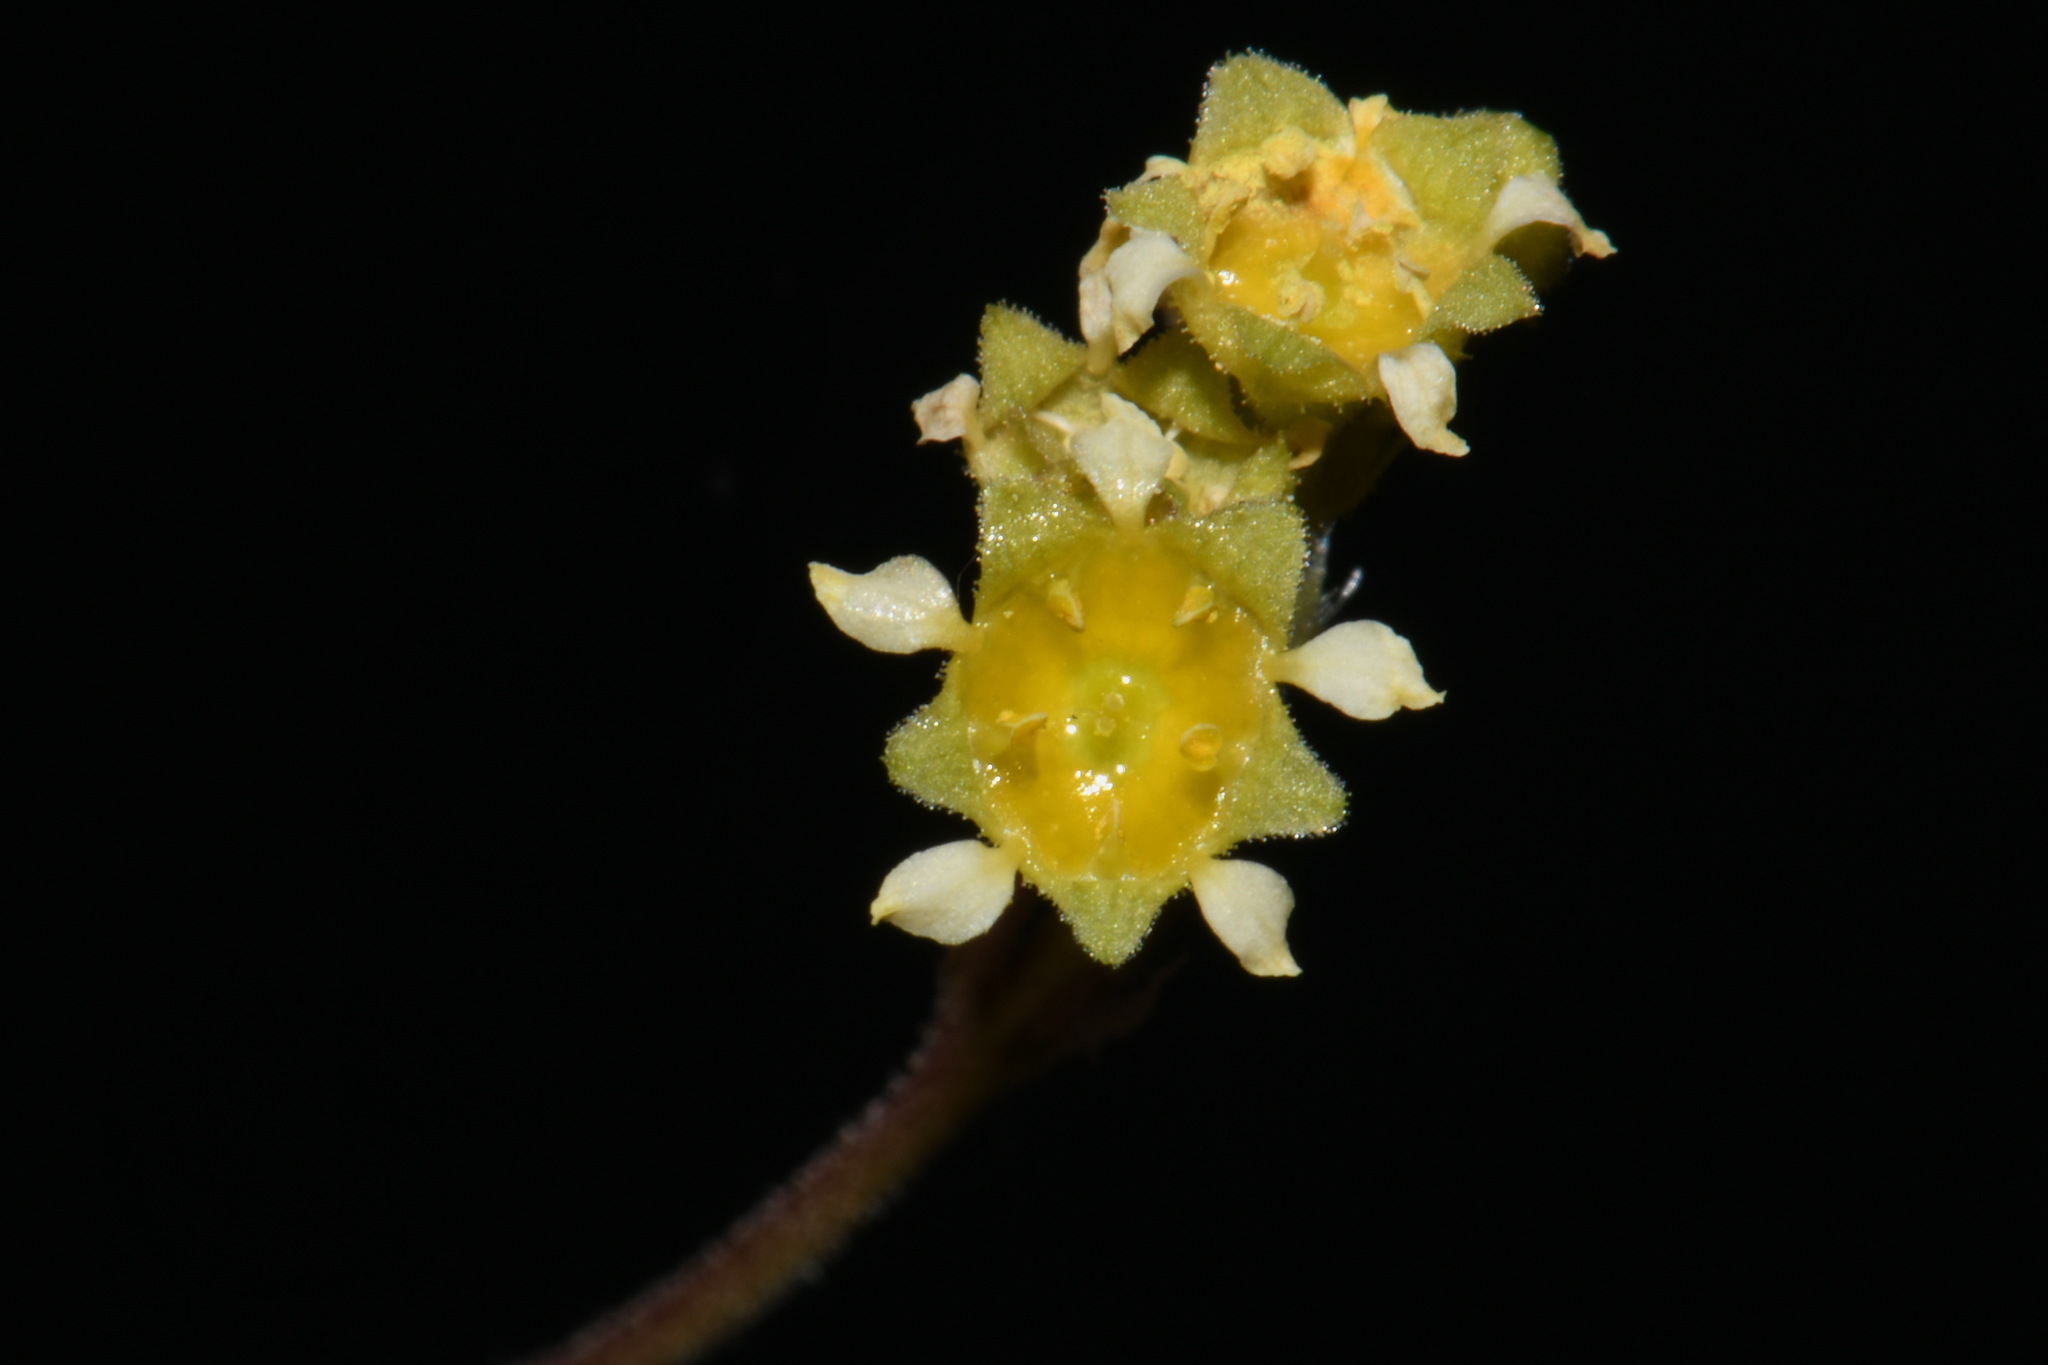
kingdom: Plantae
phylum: Tracheophyta
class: Magnoliopsida
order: Saxifragales
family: Saxifragaceae
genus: Heuchera
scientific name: Heuchera parvifolia
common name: Common alumroot
